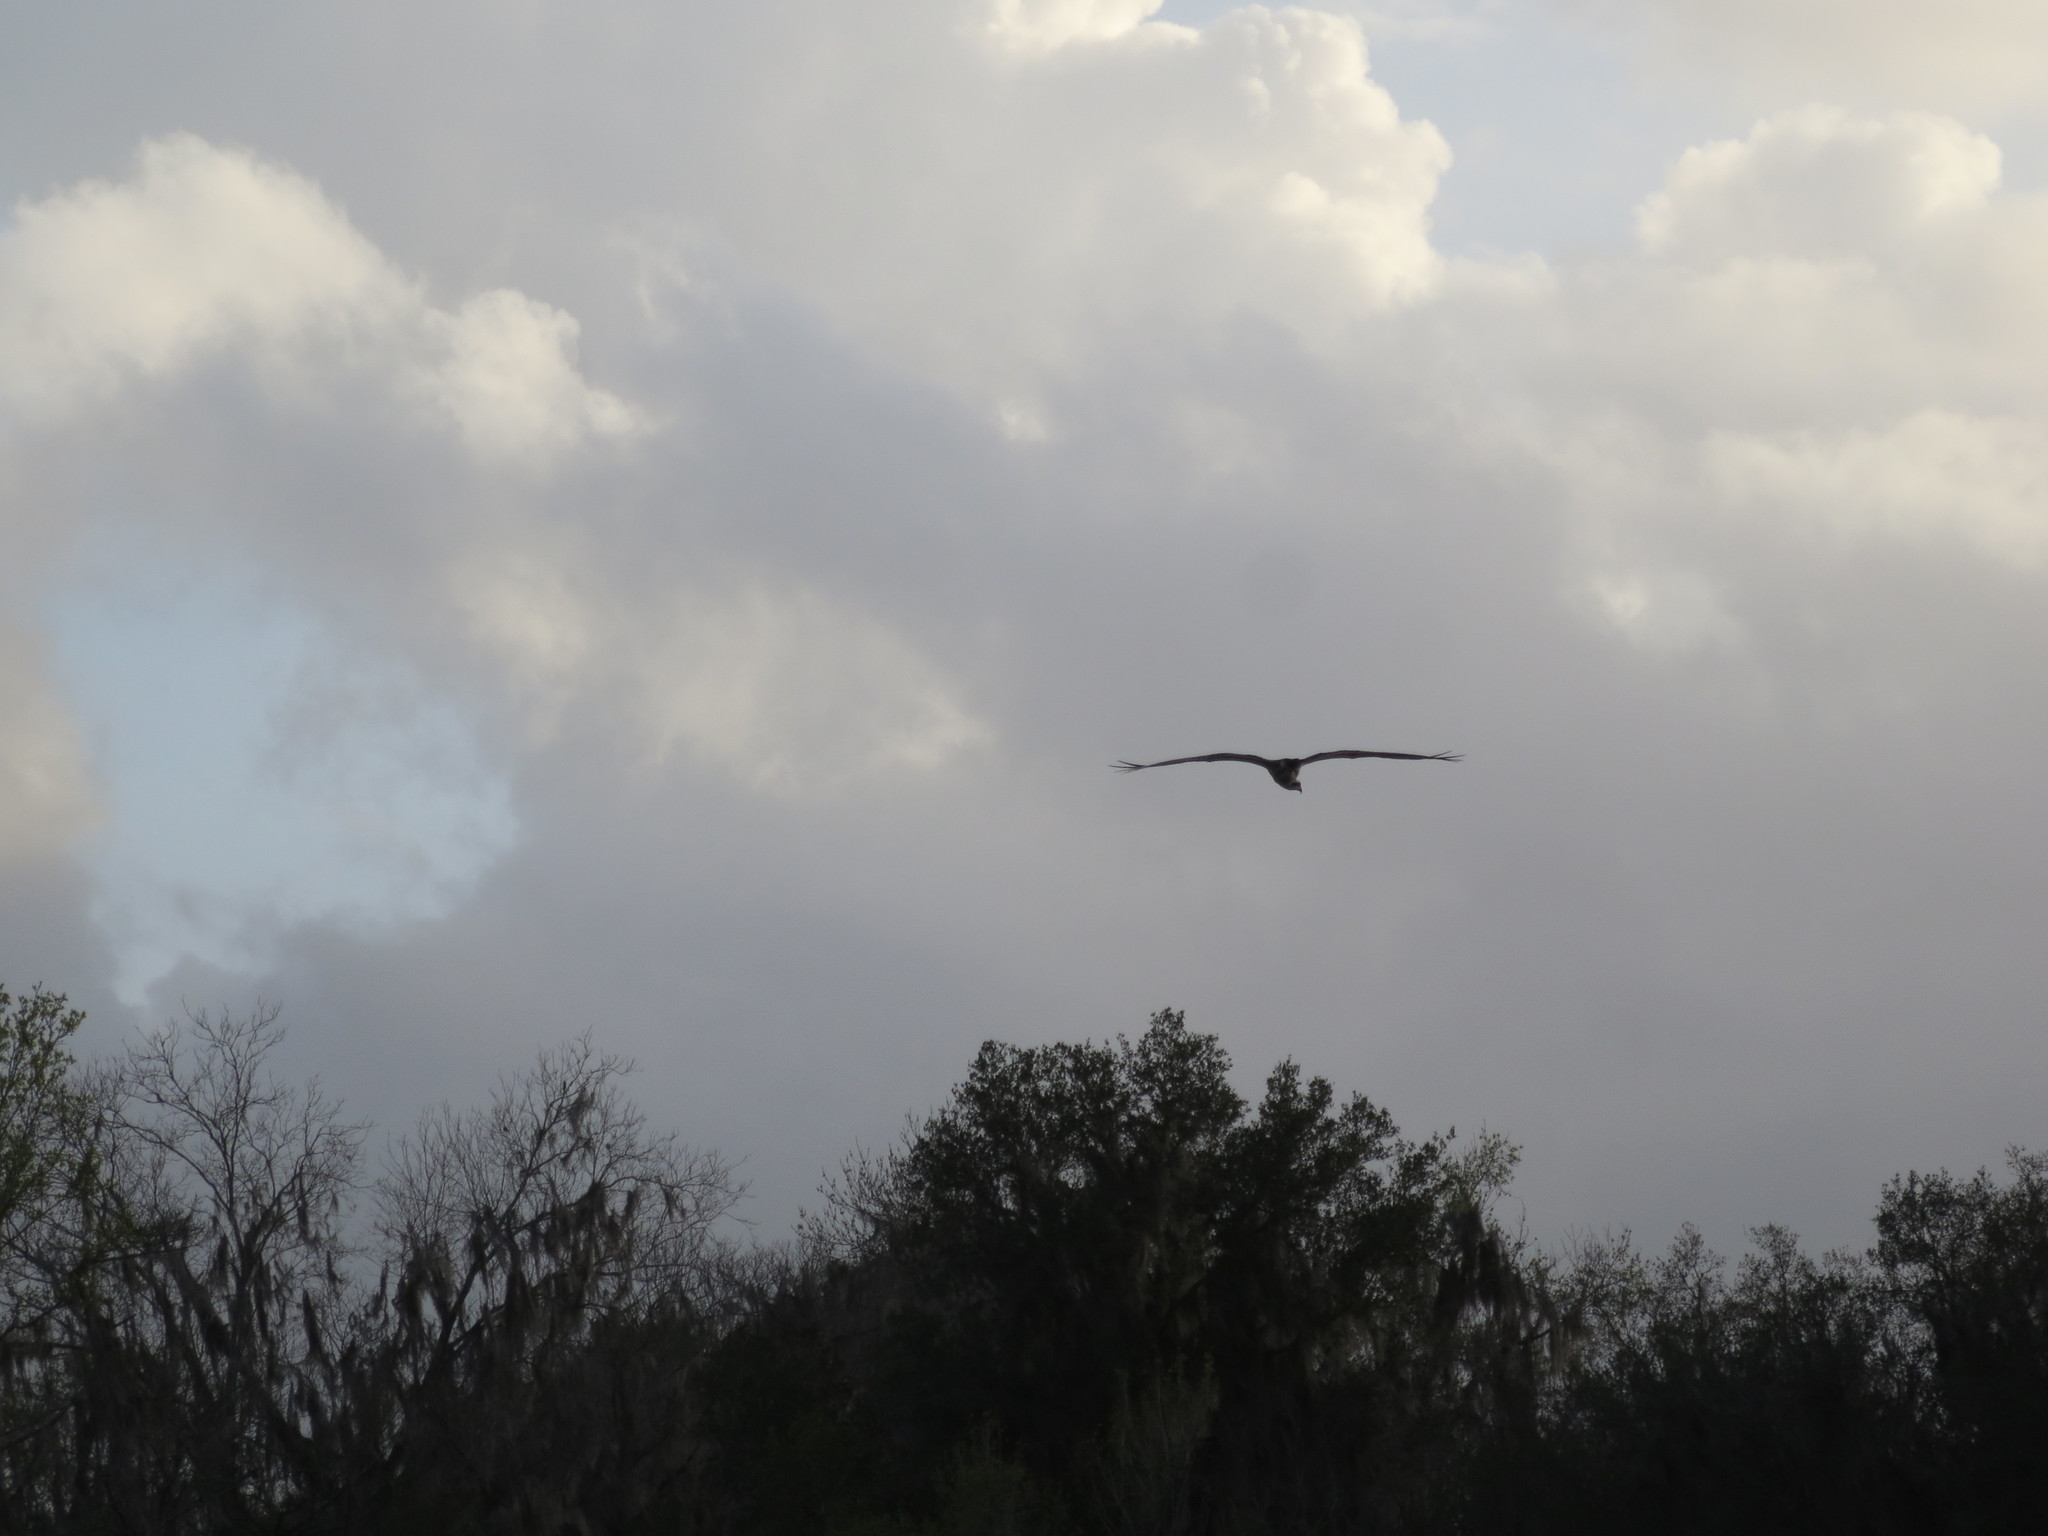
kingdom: Animalia
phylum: Chordata
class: Aves
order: Accipitriformes
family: Pandionidae
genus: Pandion
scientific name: Pandion haliaetus
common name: Osprey
